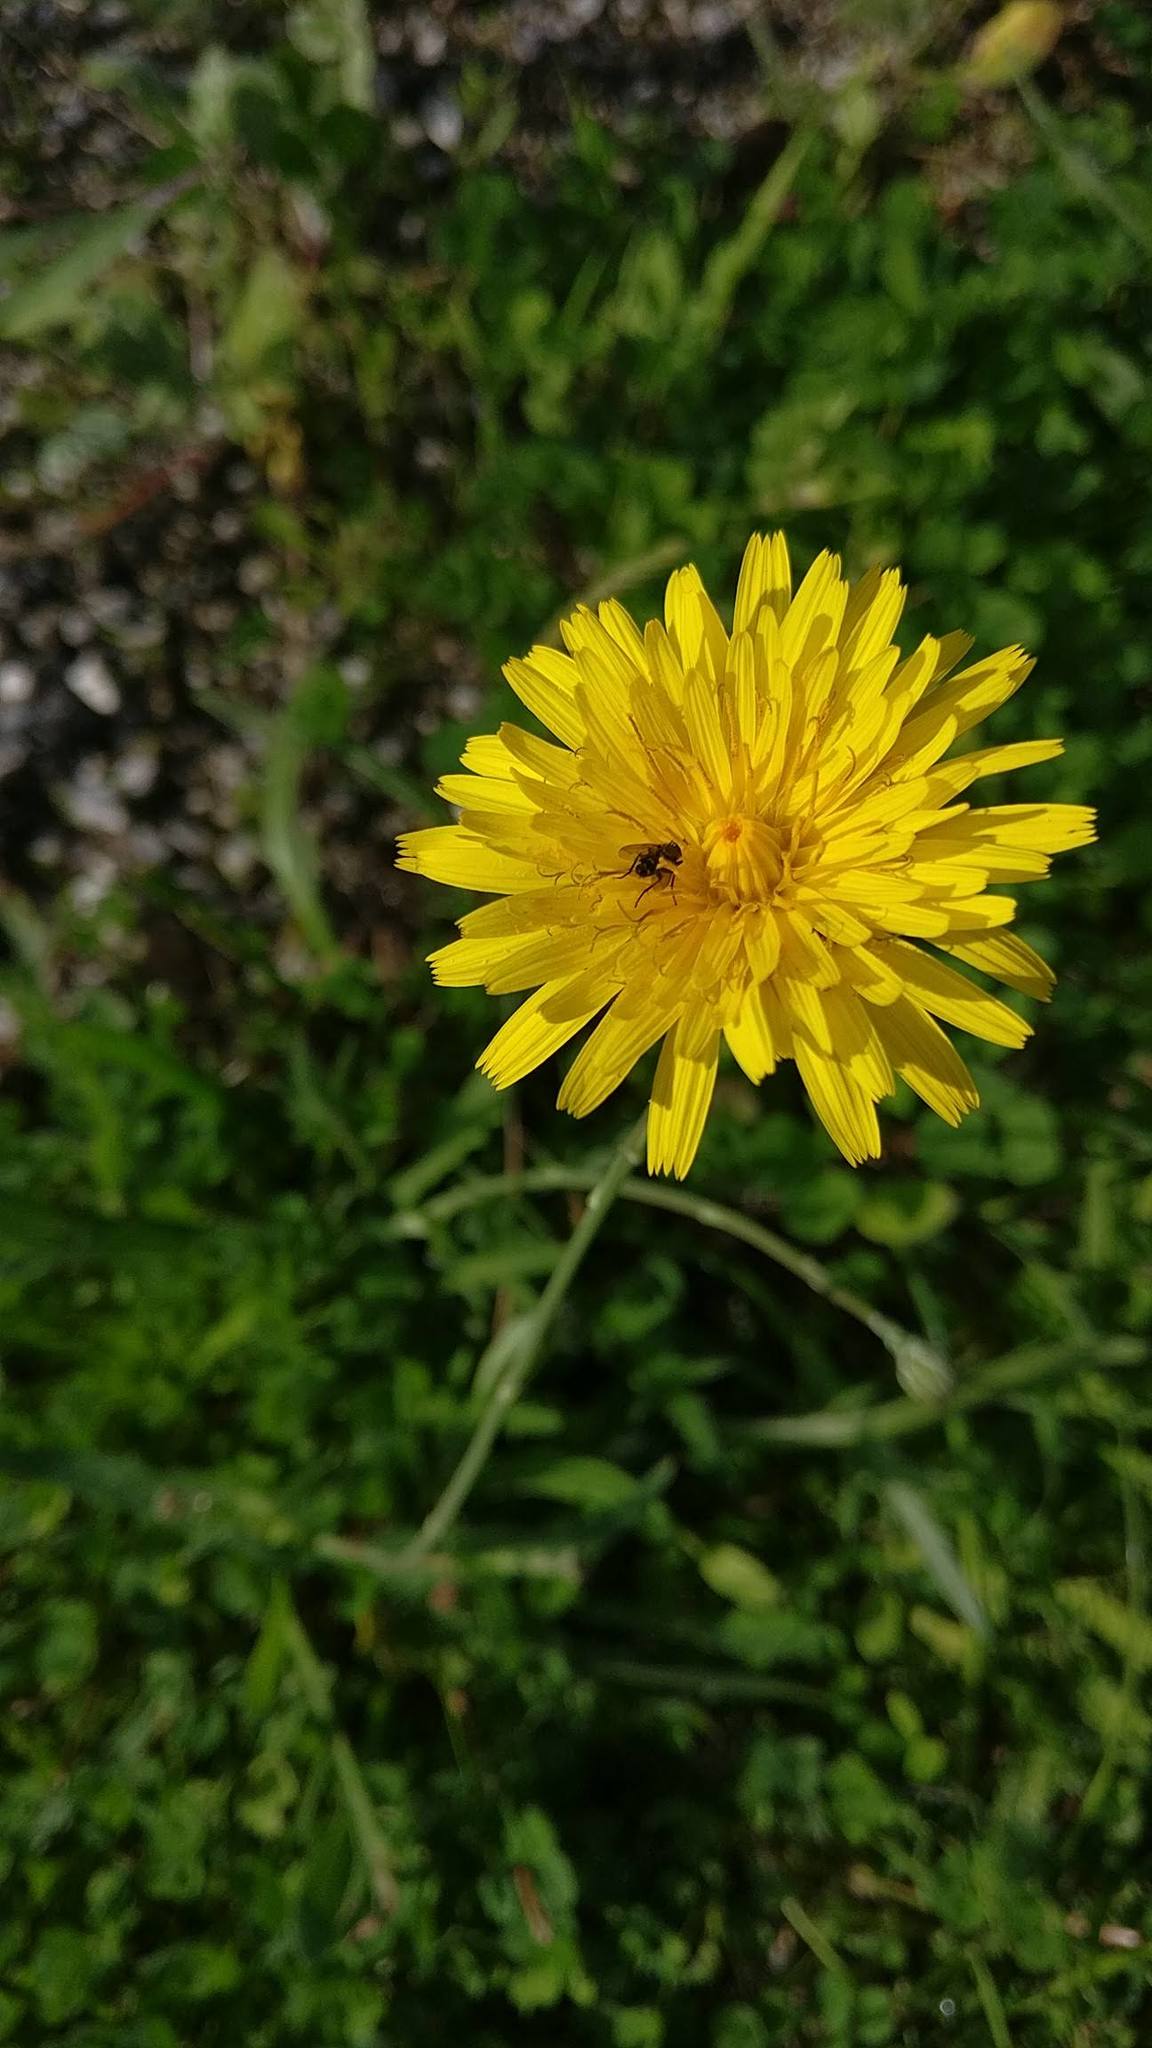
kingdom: Plantae
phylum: Tracheophyta
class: Magnoliopsida
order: Asterales
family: Asteraceae
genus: Reichardia
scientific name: Reichardia picroides
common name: Common brighteyes
